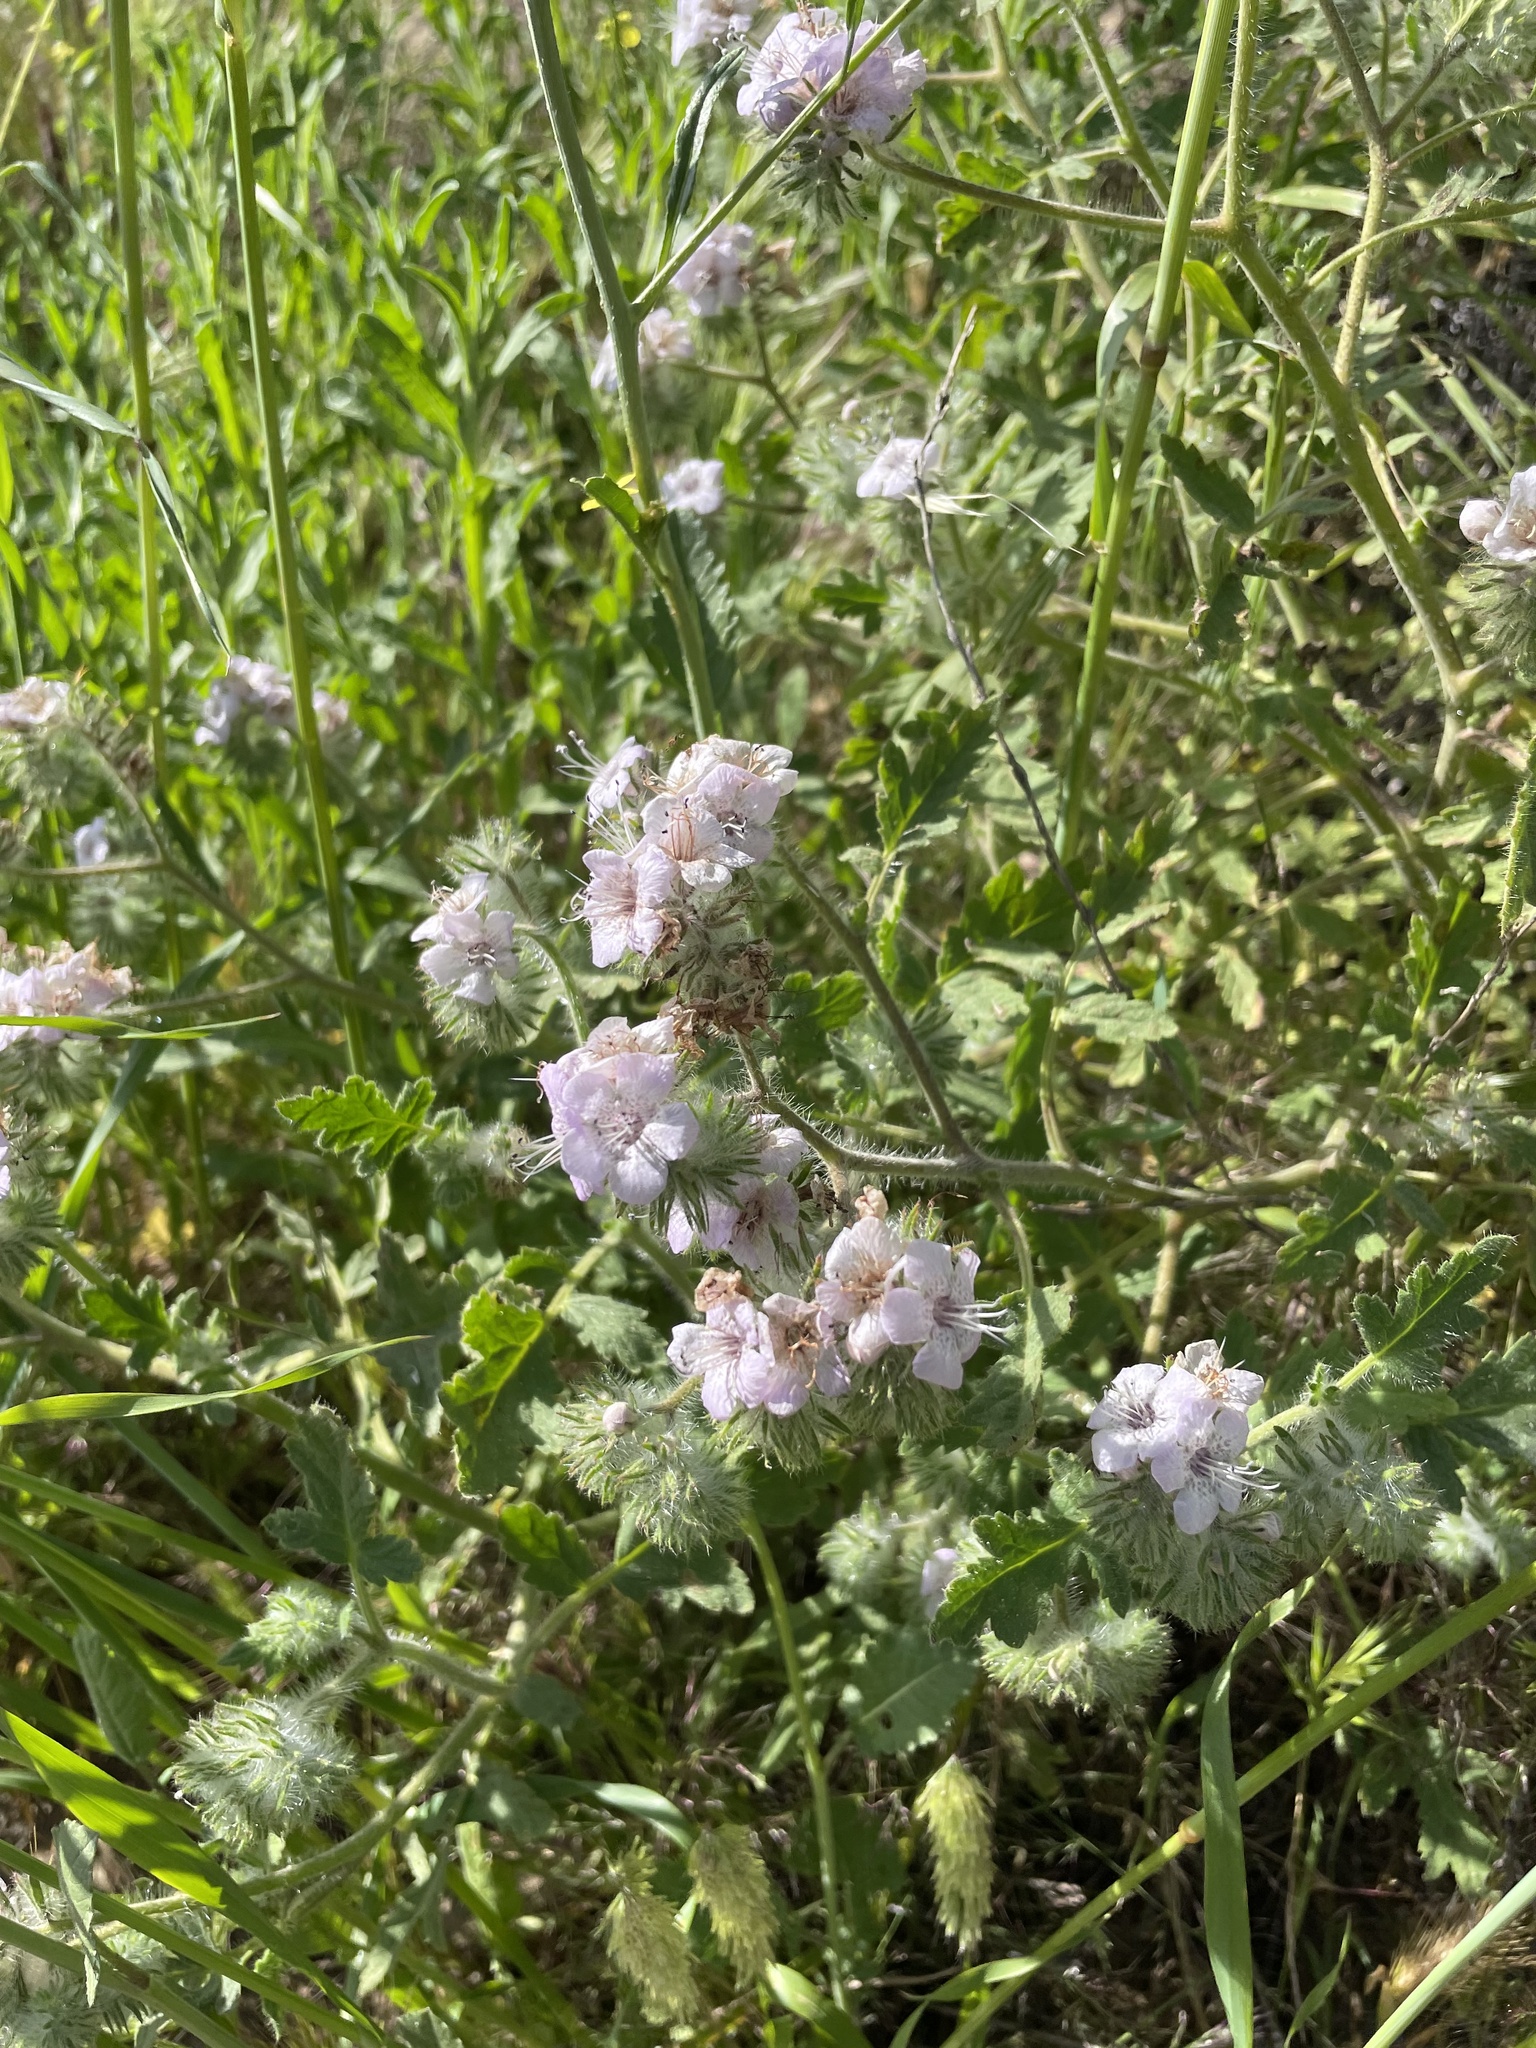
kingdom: Plantae
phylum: Tracheophyta
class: Magnoliopsida
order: Boraginales
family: Hydrophyllaceae
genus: Phacelia
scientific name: Phacelia cicutaria
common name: Caterpillar phacelia
